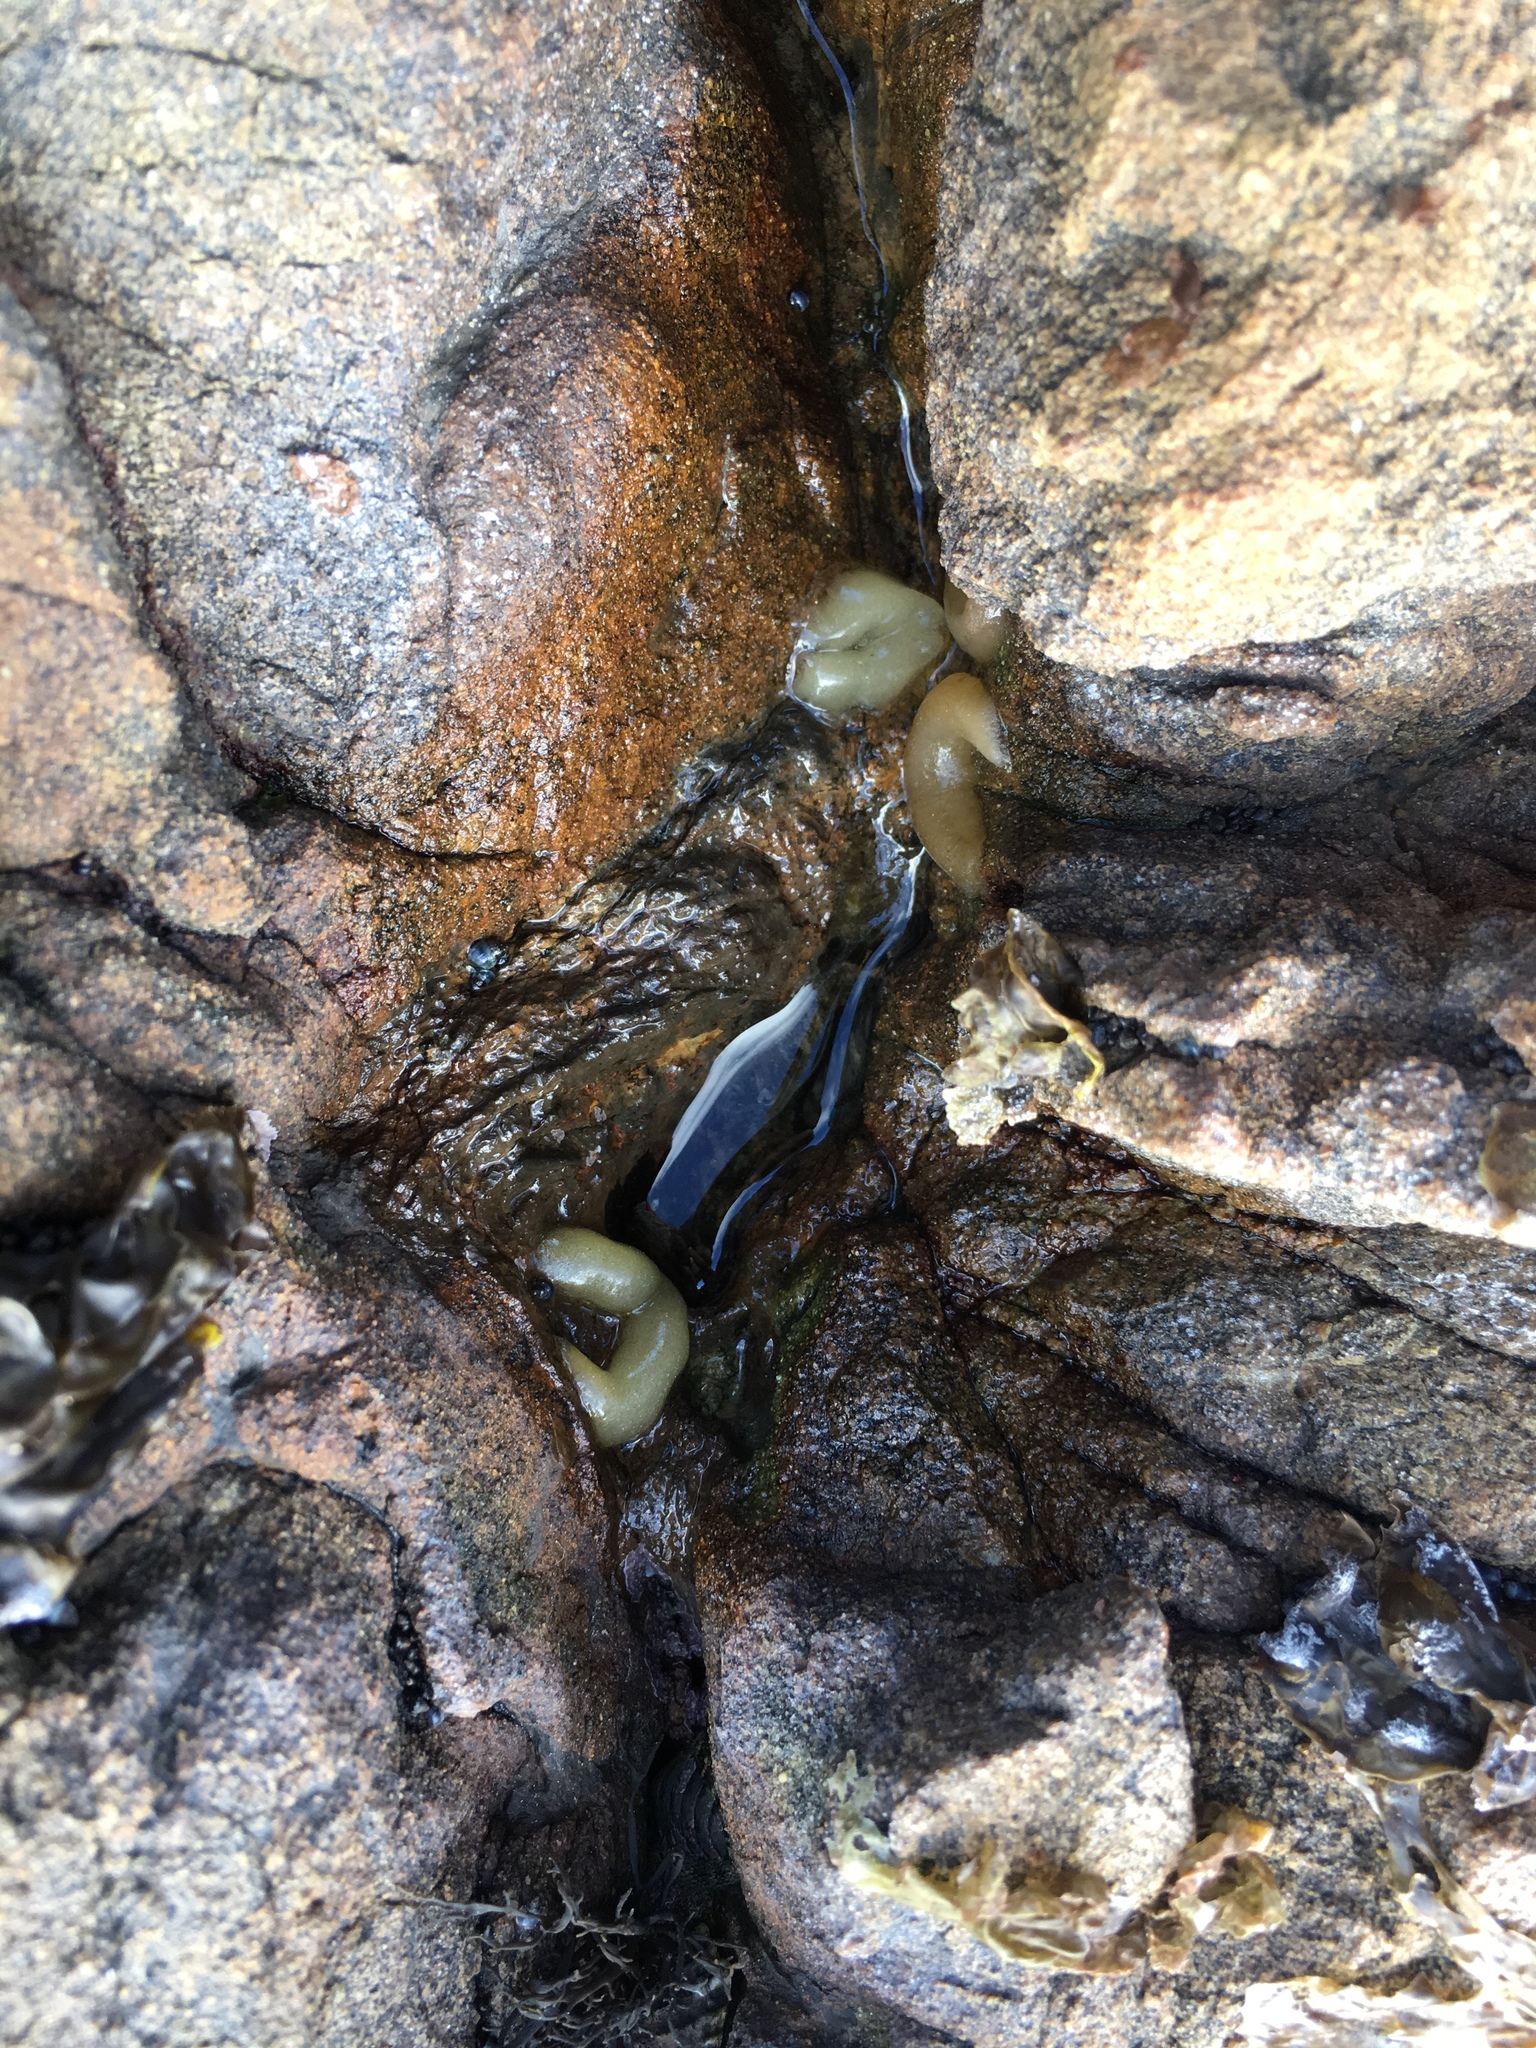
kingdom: Animalia
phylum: Mollusca
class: Gastropoda
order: Siphonariida
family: Siphonariidae
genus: Siphonaria
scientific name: Siphonaria
